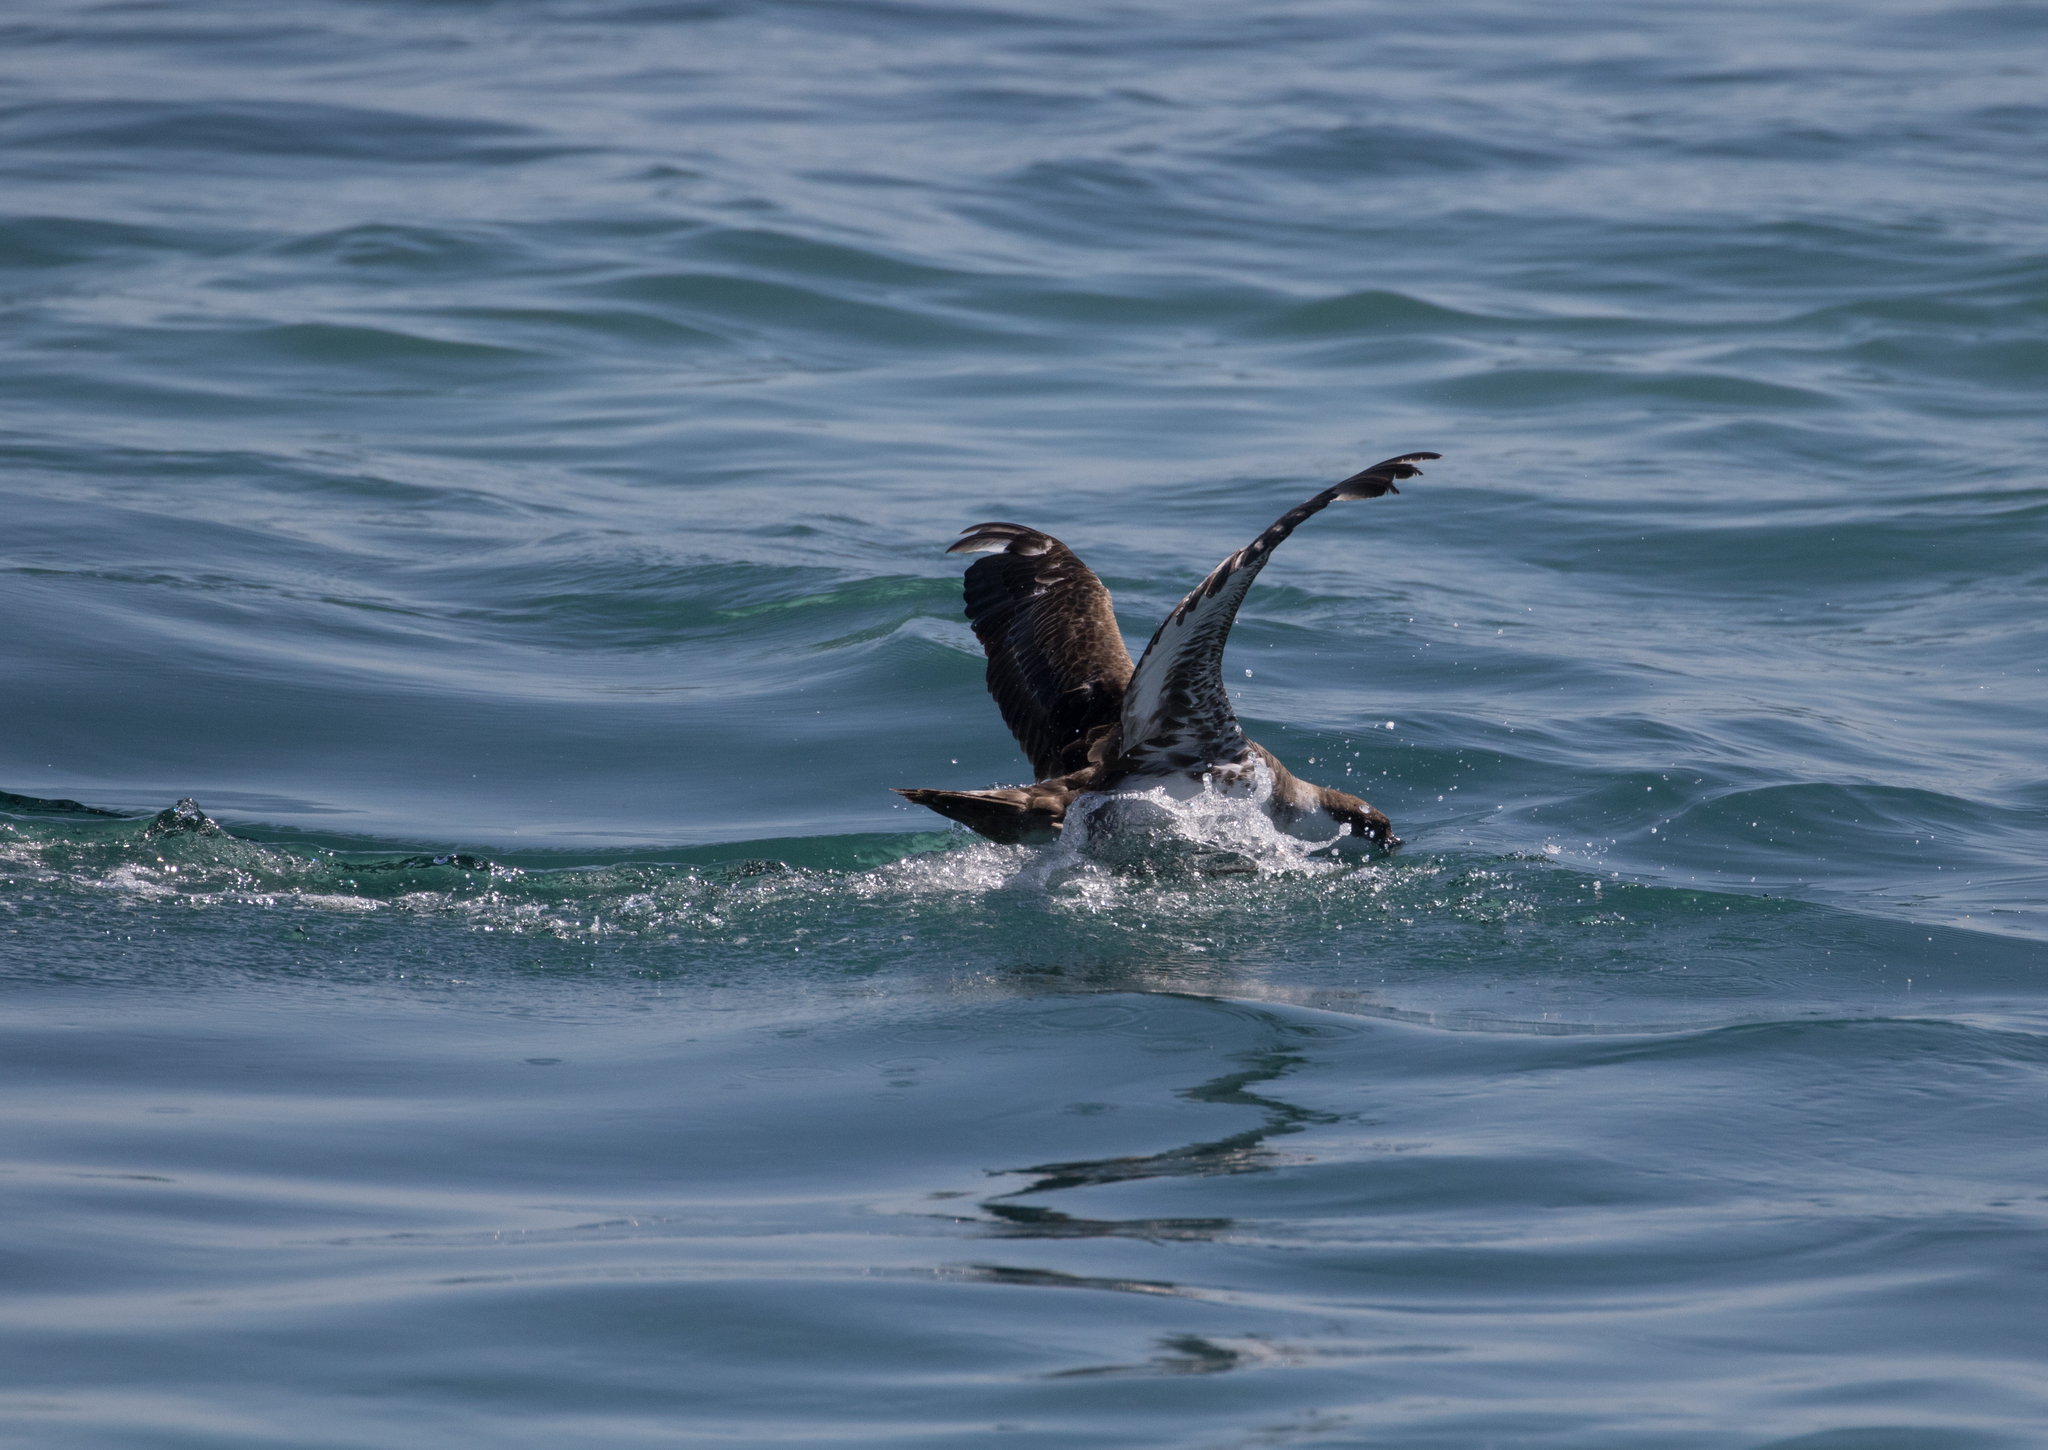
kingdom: Animalia
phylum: Chordata
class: Aves
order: Procellariiformes
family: Procellariidae
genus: Puffinus
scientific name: Puffinus gravis
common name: Great shearwater
